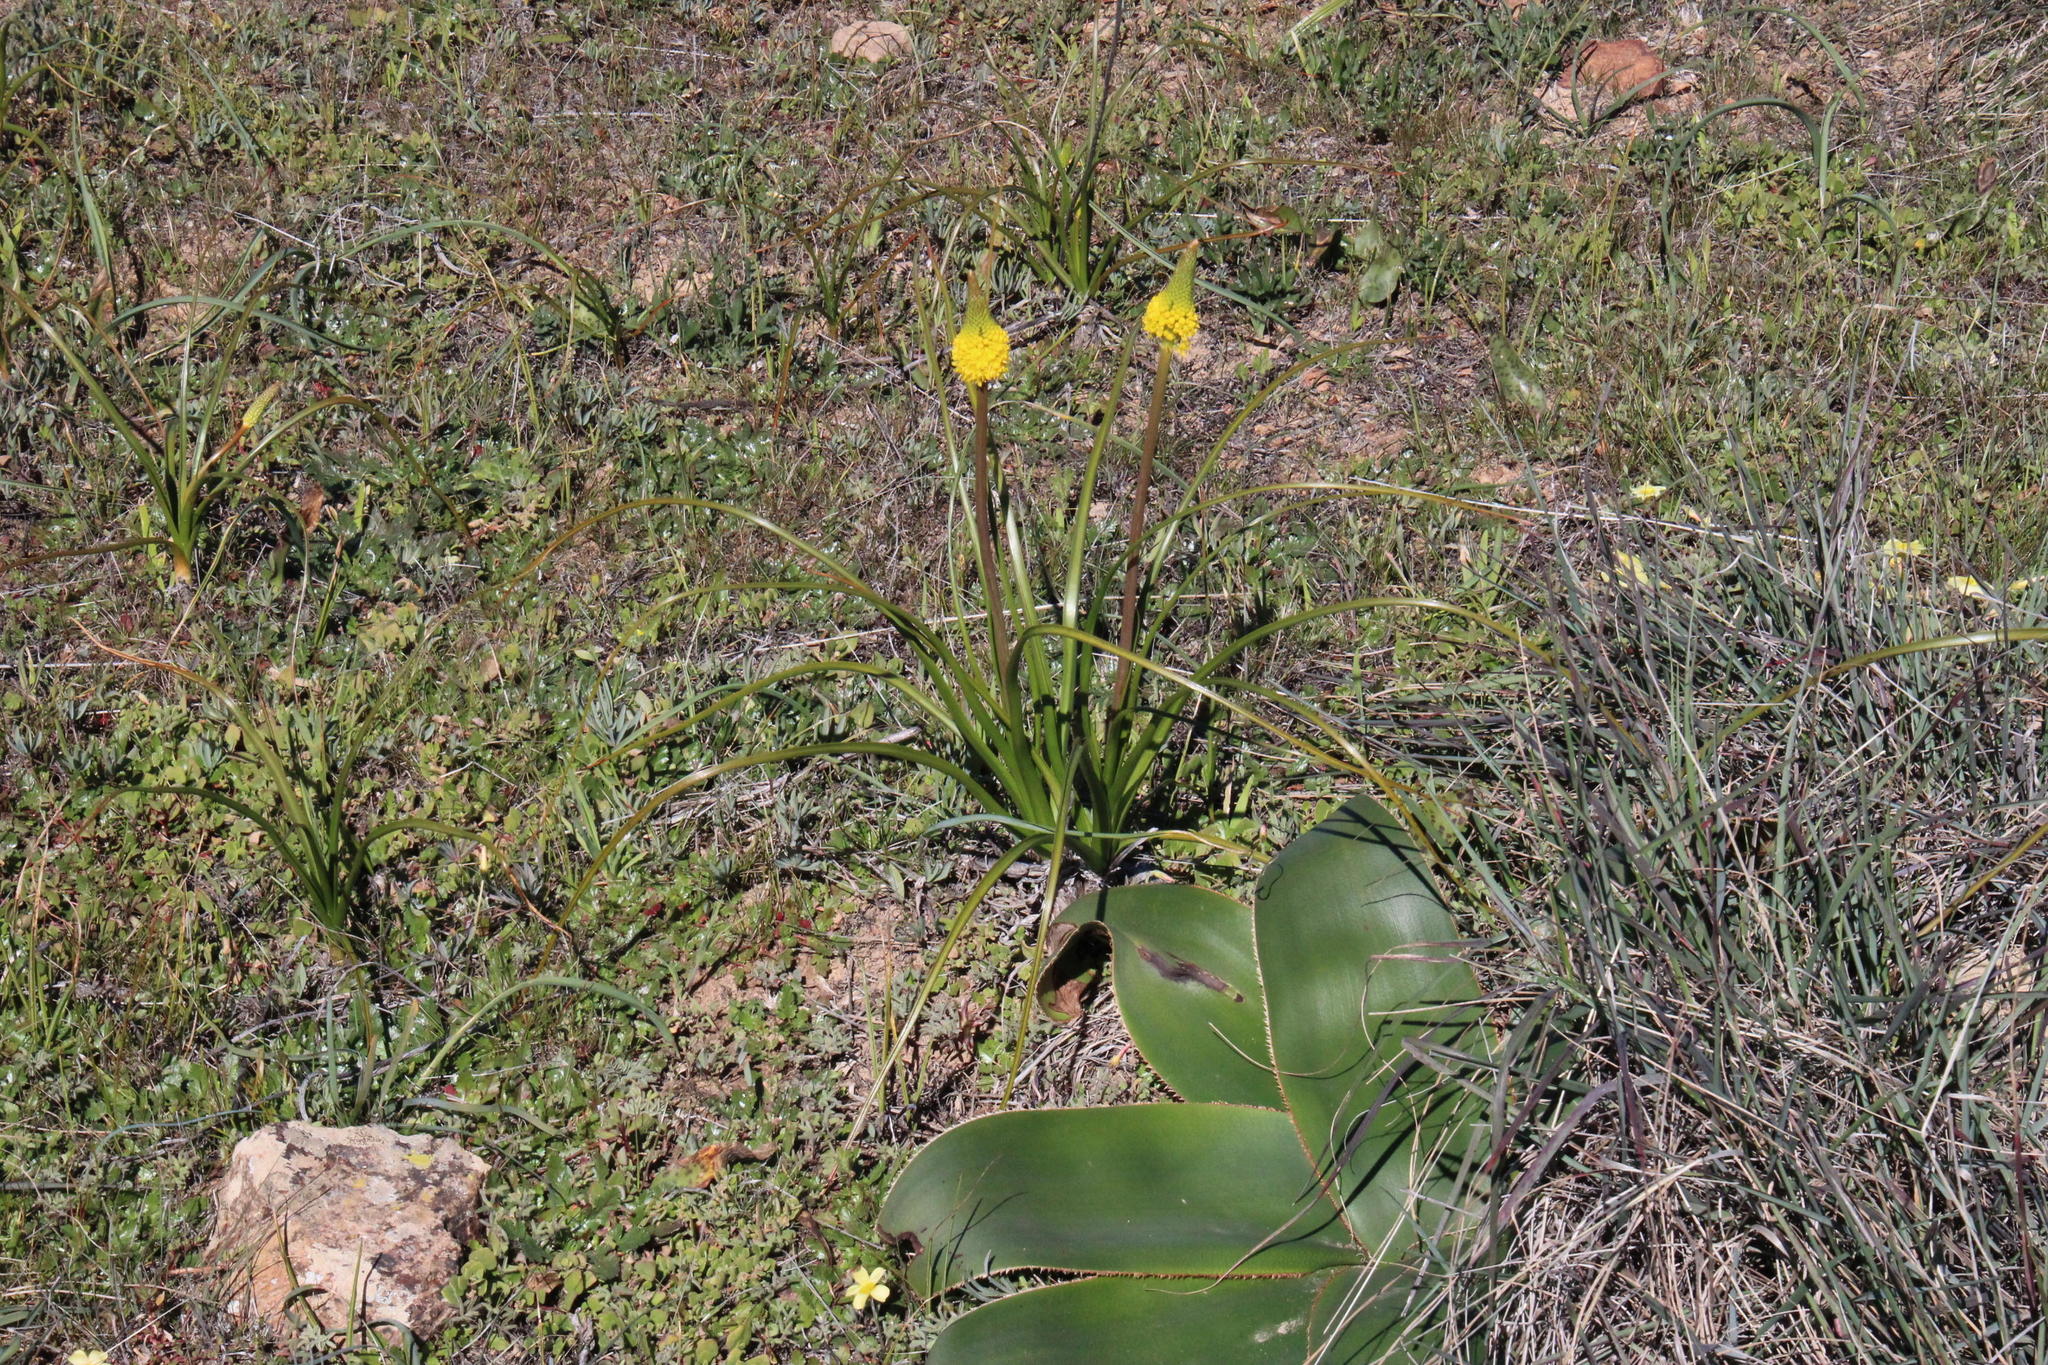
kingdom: Plantae
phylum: Tracheophyta
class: Liliopsida
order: Asparagales
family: Asphodelaceae
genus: Bulbinella
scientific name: Bulbinella latifolia
